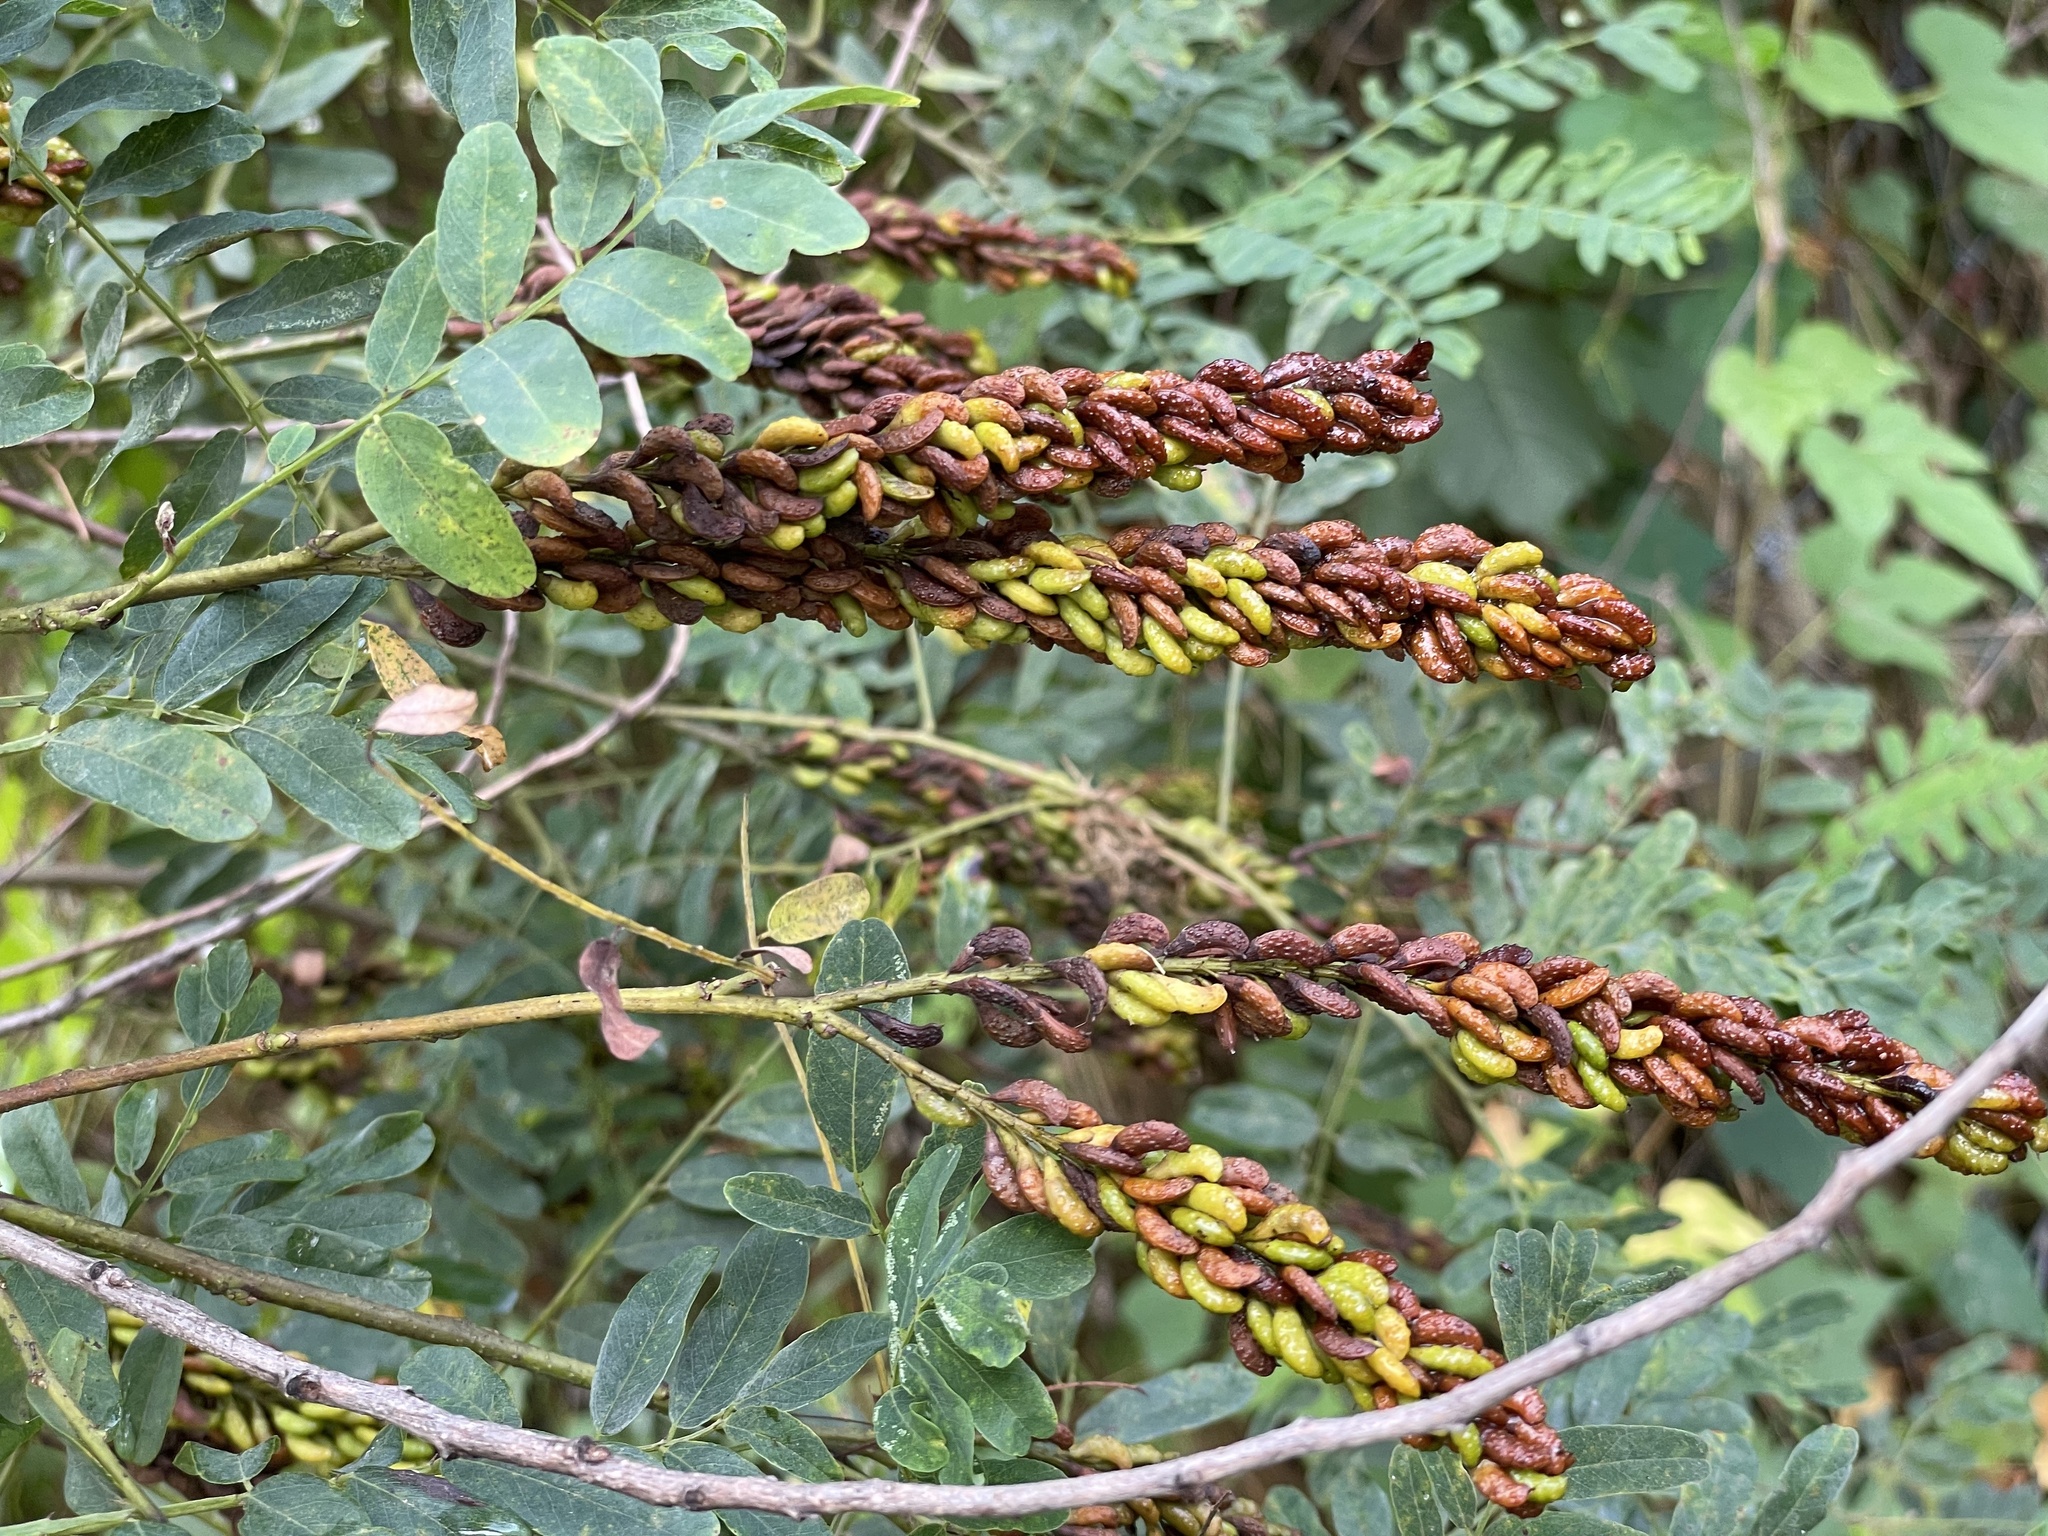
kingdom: Plantae
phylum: Tracheophyta
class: Magnoliopsida
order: Fabales
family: Fabaceae
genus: Amorpha
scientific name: Amorpha fruticosa
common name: False indigo
